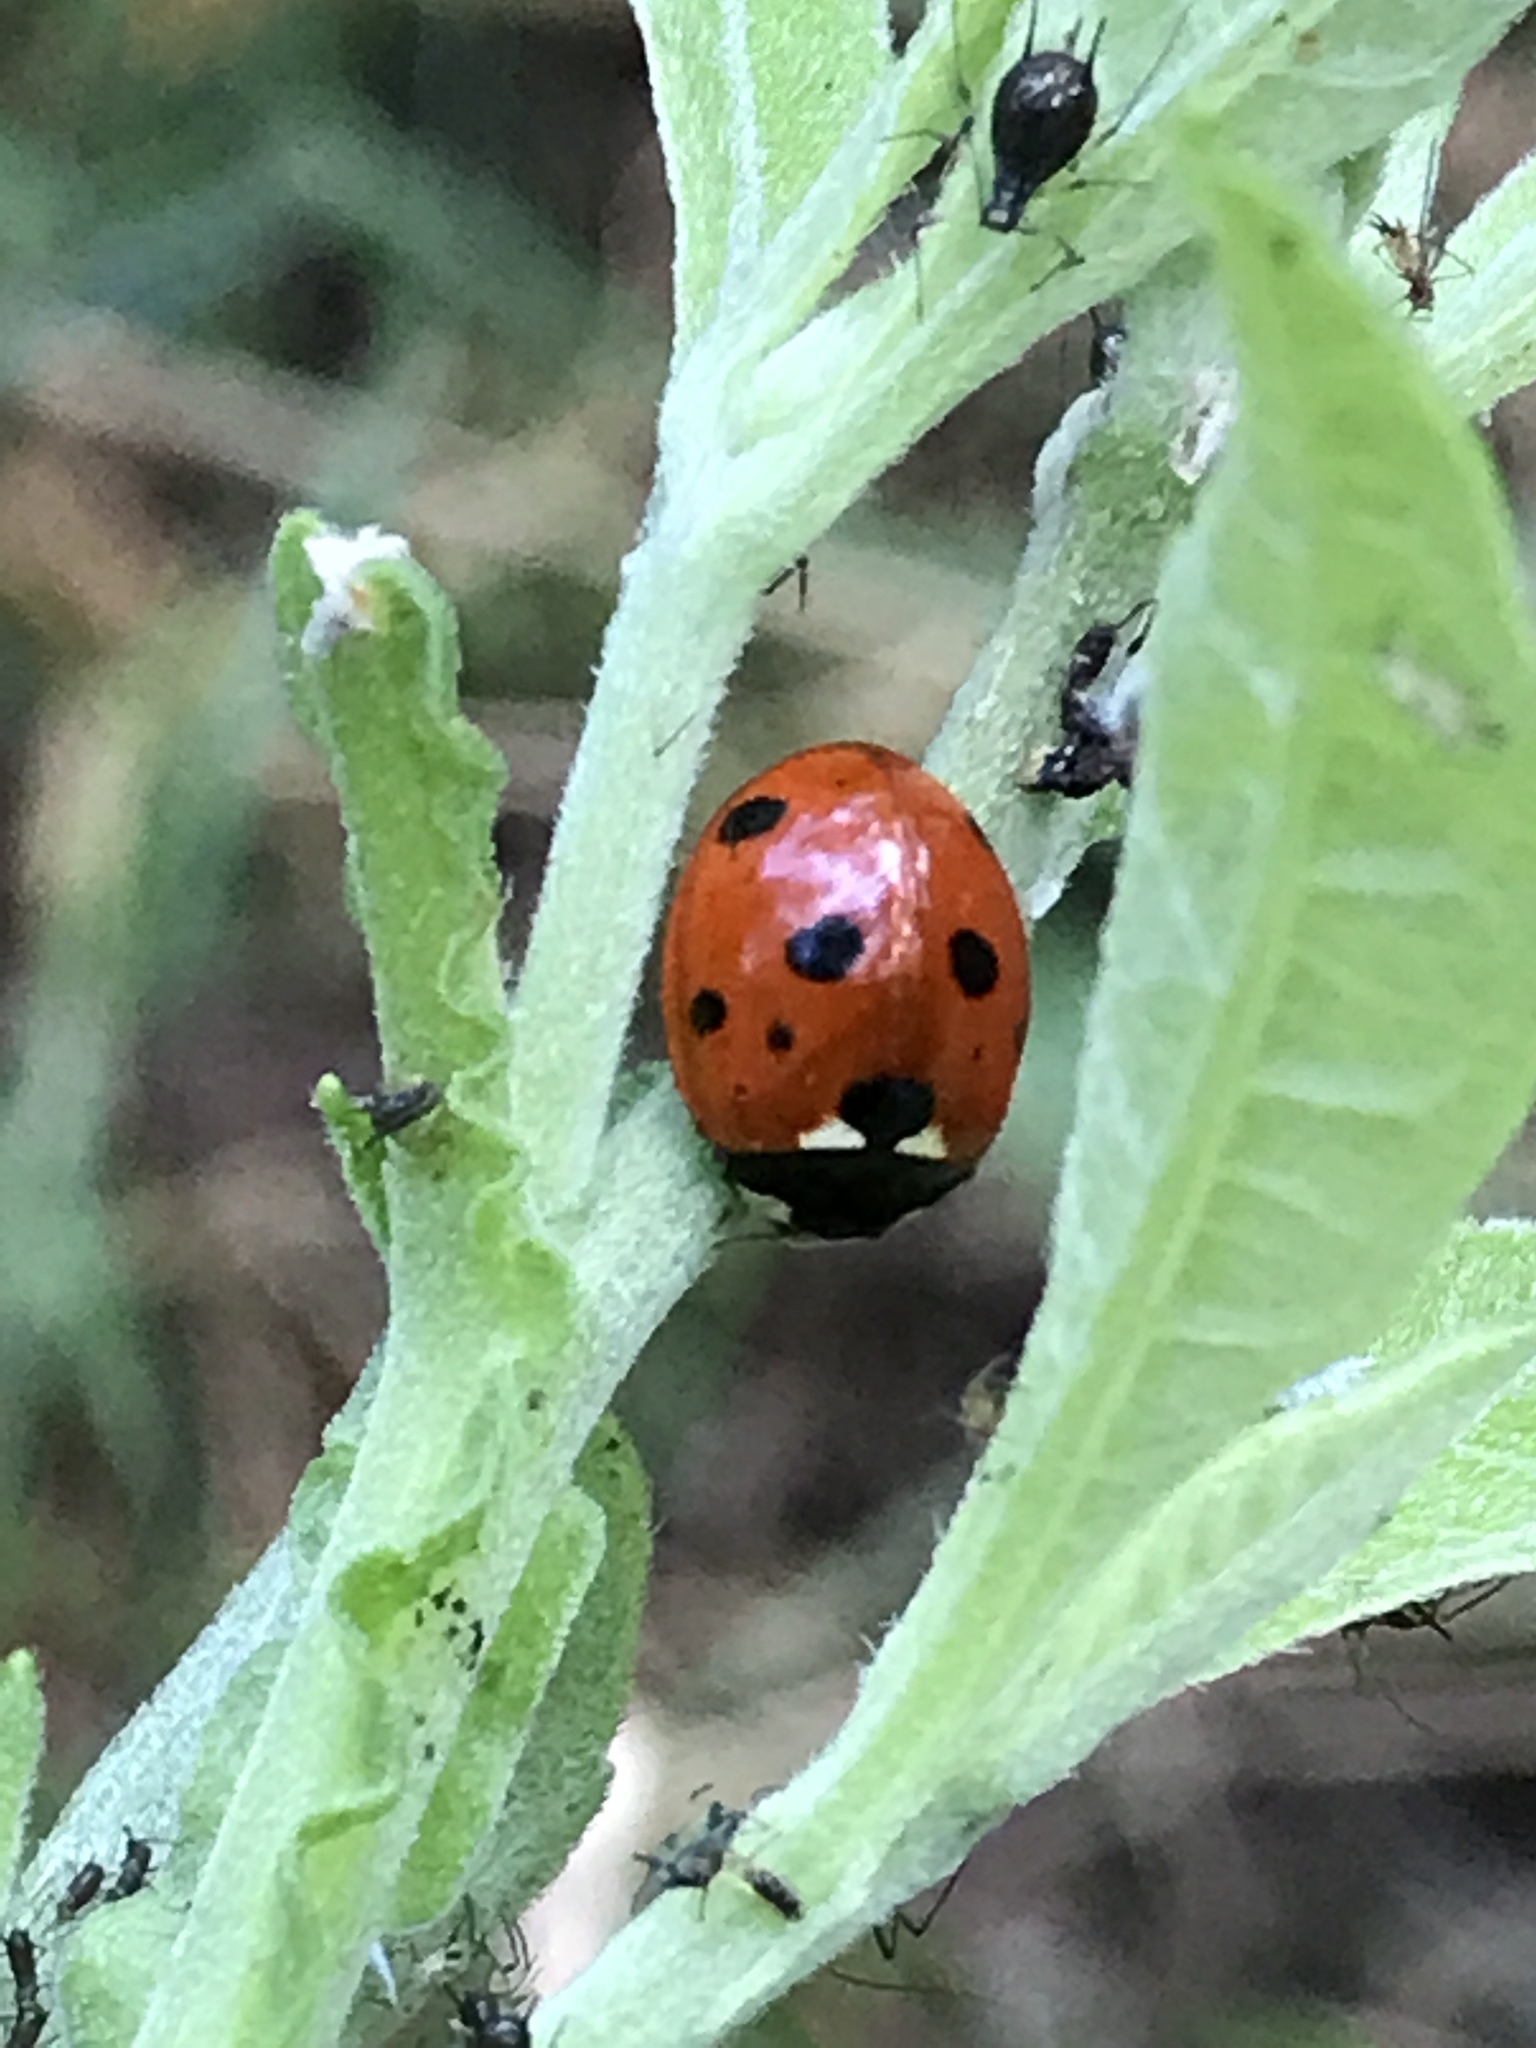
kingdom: Animalia
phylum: Arthropoda
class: Insecta
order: Coleoptera
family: Coccinellidae
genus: Coccinella
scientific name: Coccinella septempunctata
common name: Sevenspotted lady beetle
